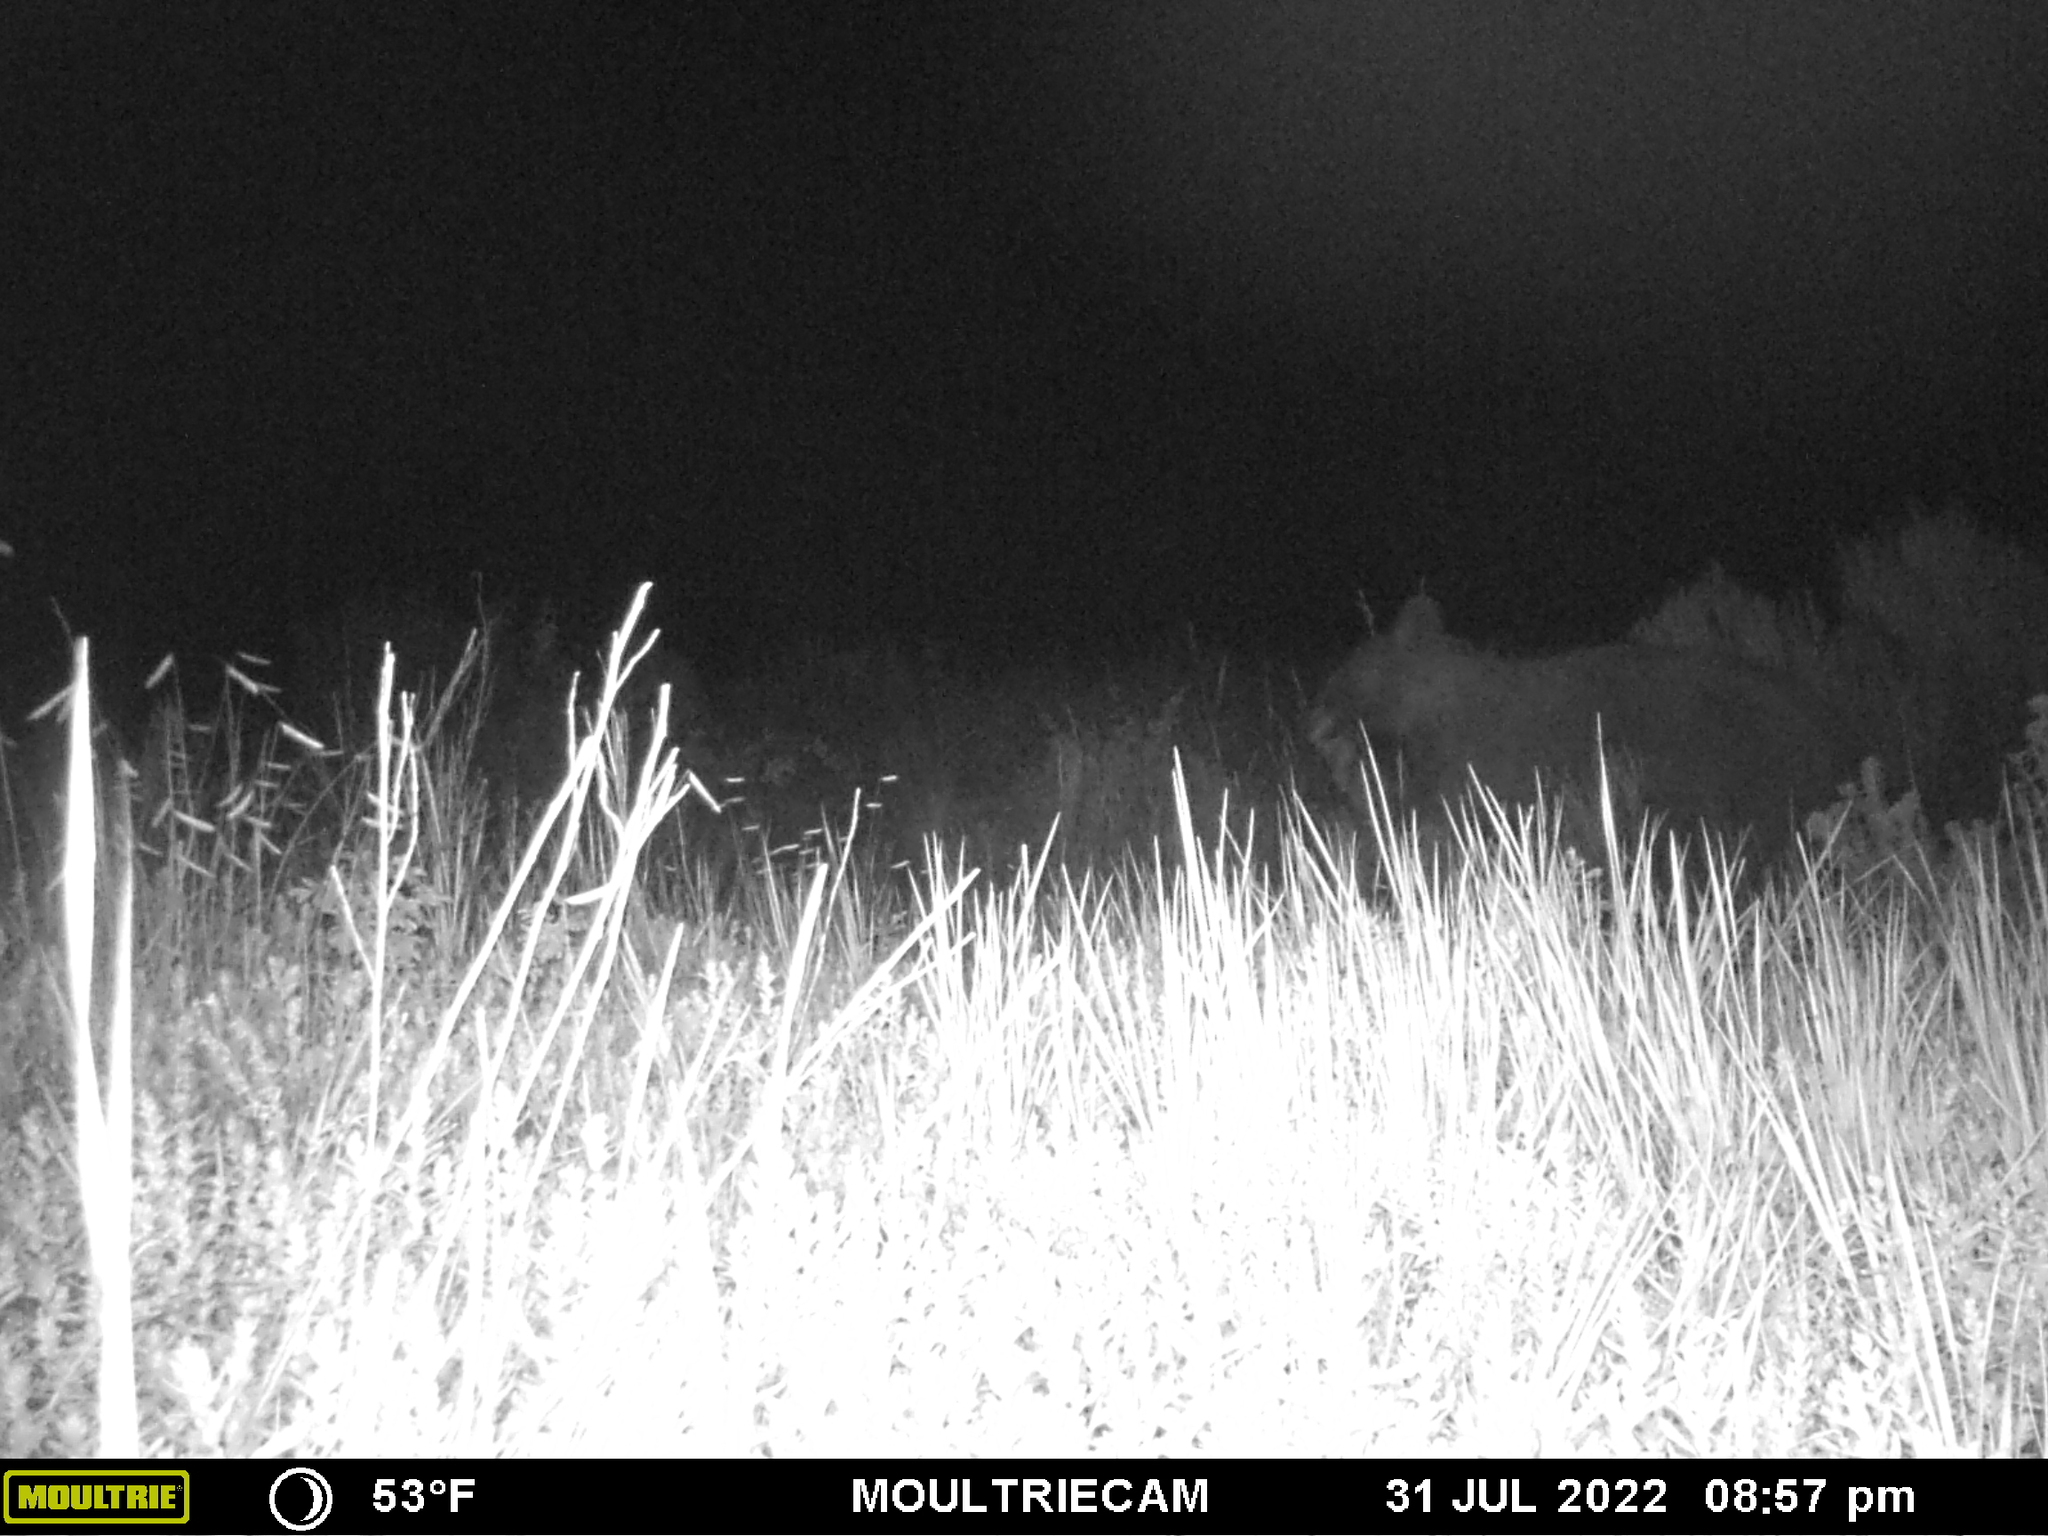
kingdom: Animalia
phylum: Chordata
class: Mammalia
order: Carnivora
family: Ursidae
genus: Ursus
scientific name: Ursus americanus
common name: American black bear
